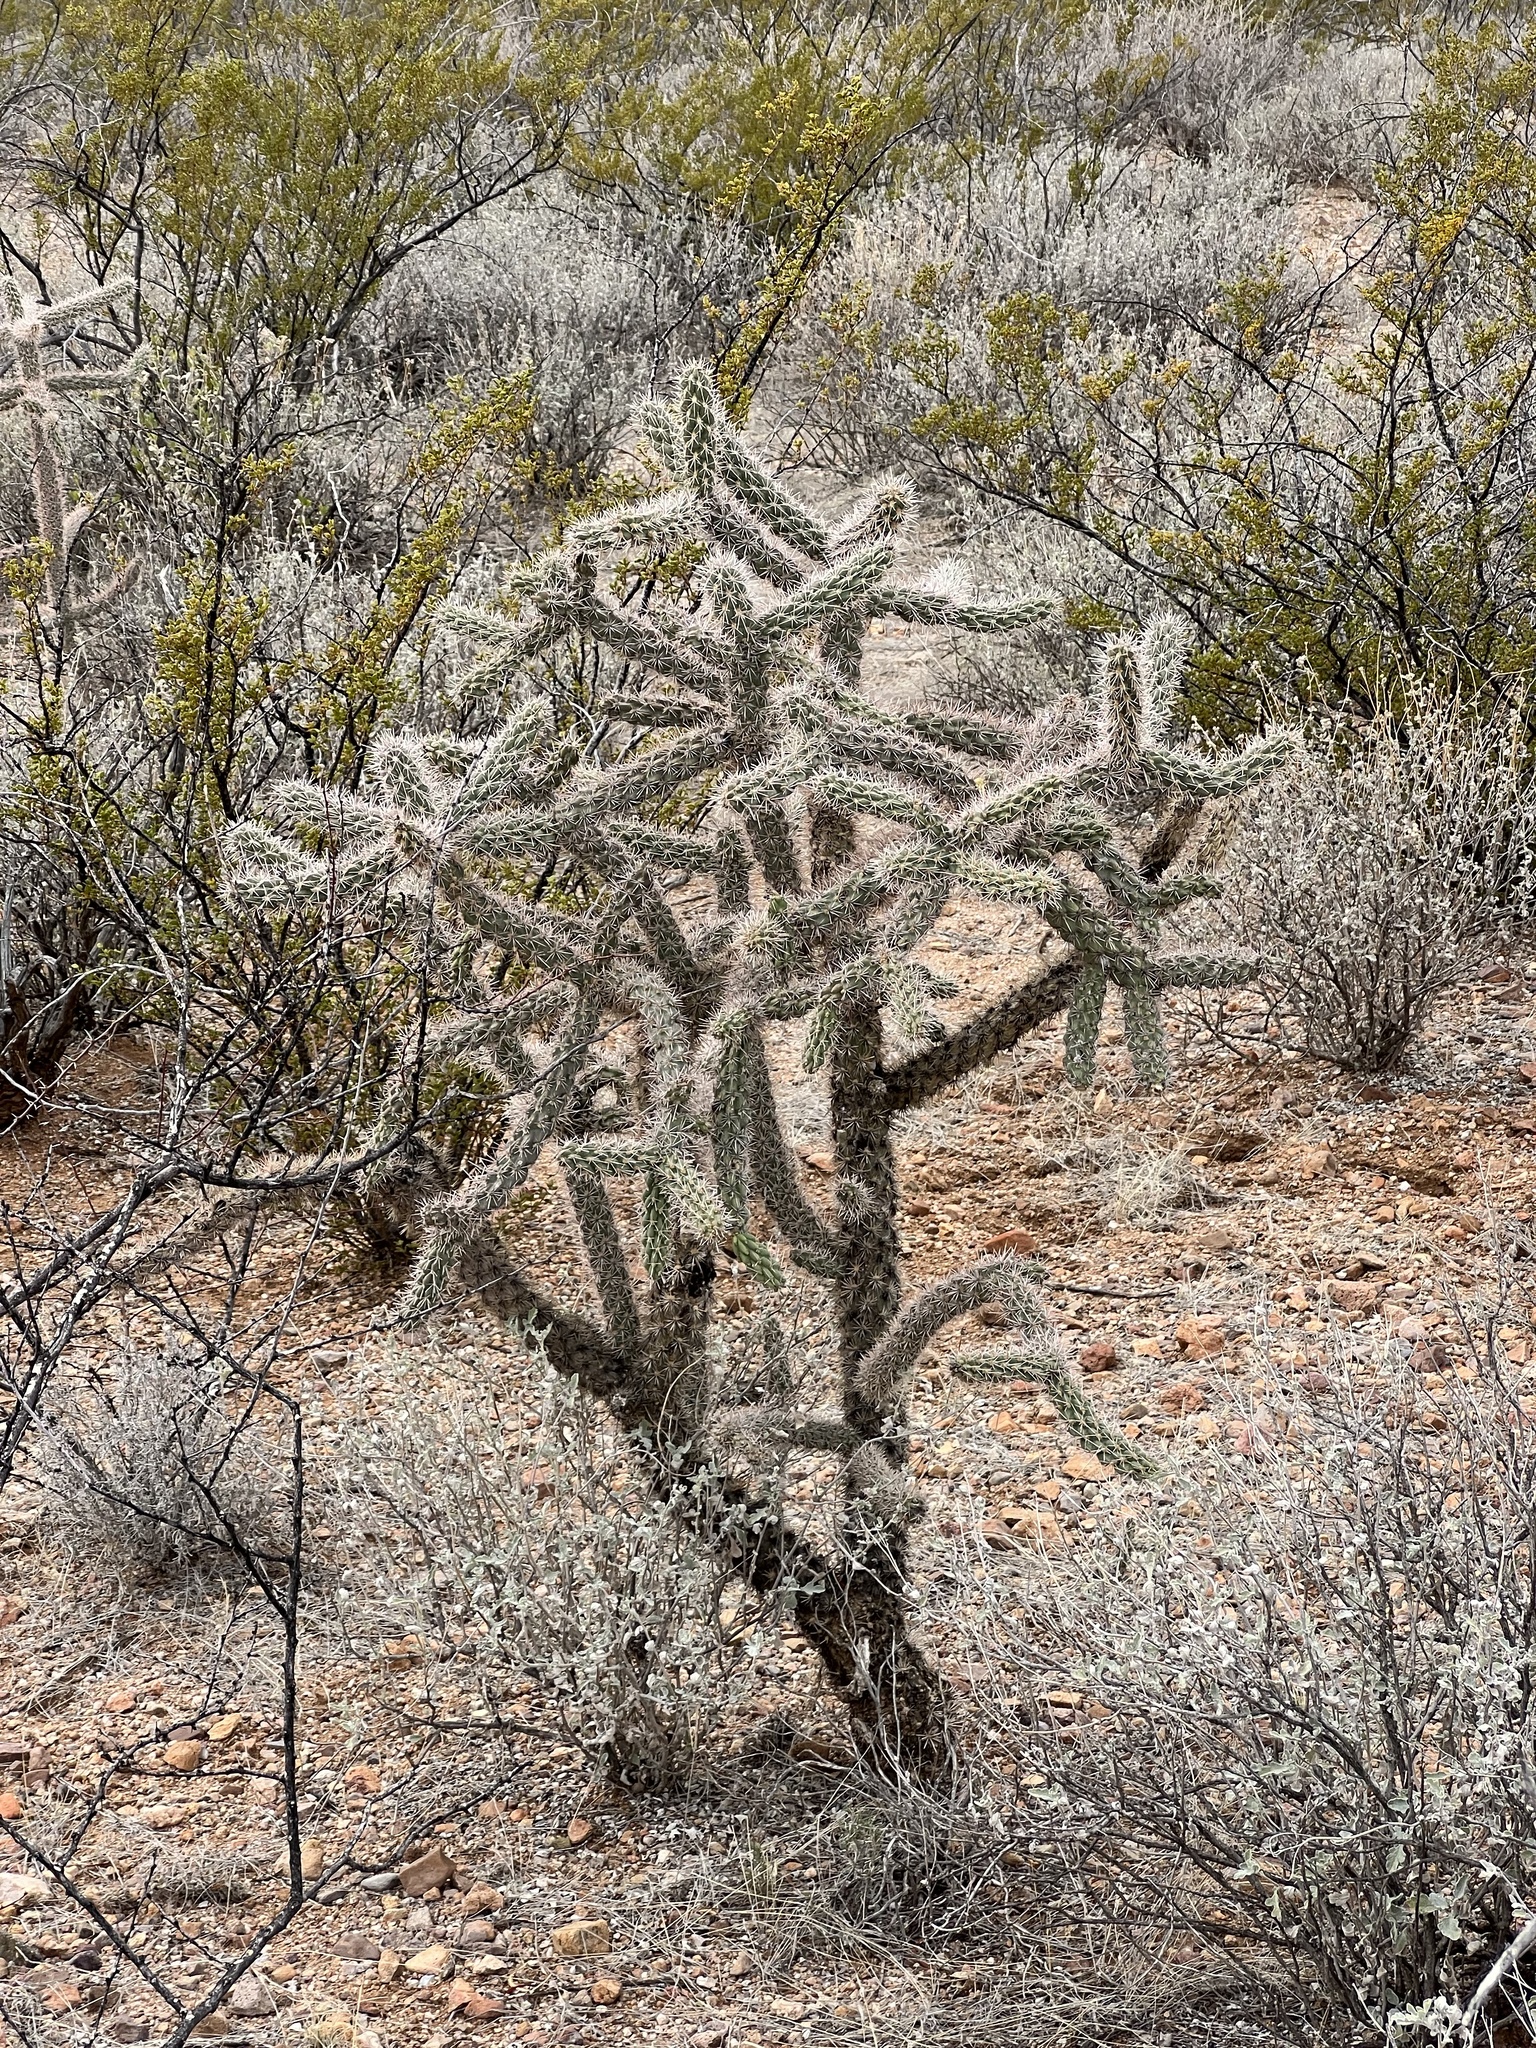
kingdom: Plantae
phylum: Tracheophyta
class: Magnoliopsida
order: Caryophyllales
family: Cactaceae
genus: Cylindropuntia
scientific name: Cylindropuntia imbricata
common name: Candelabrum cactus
